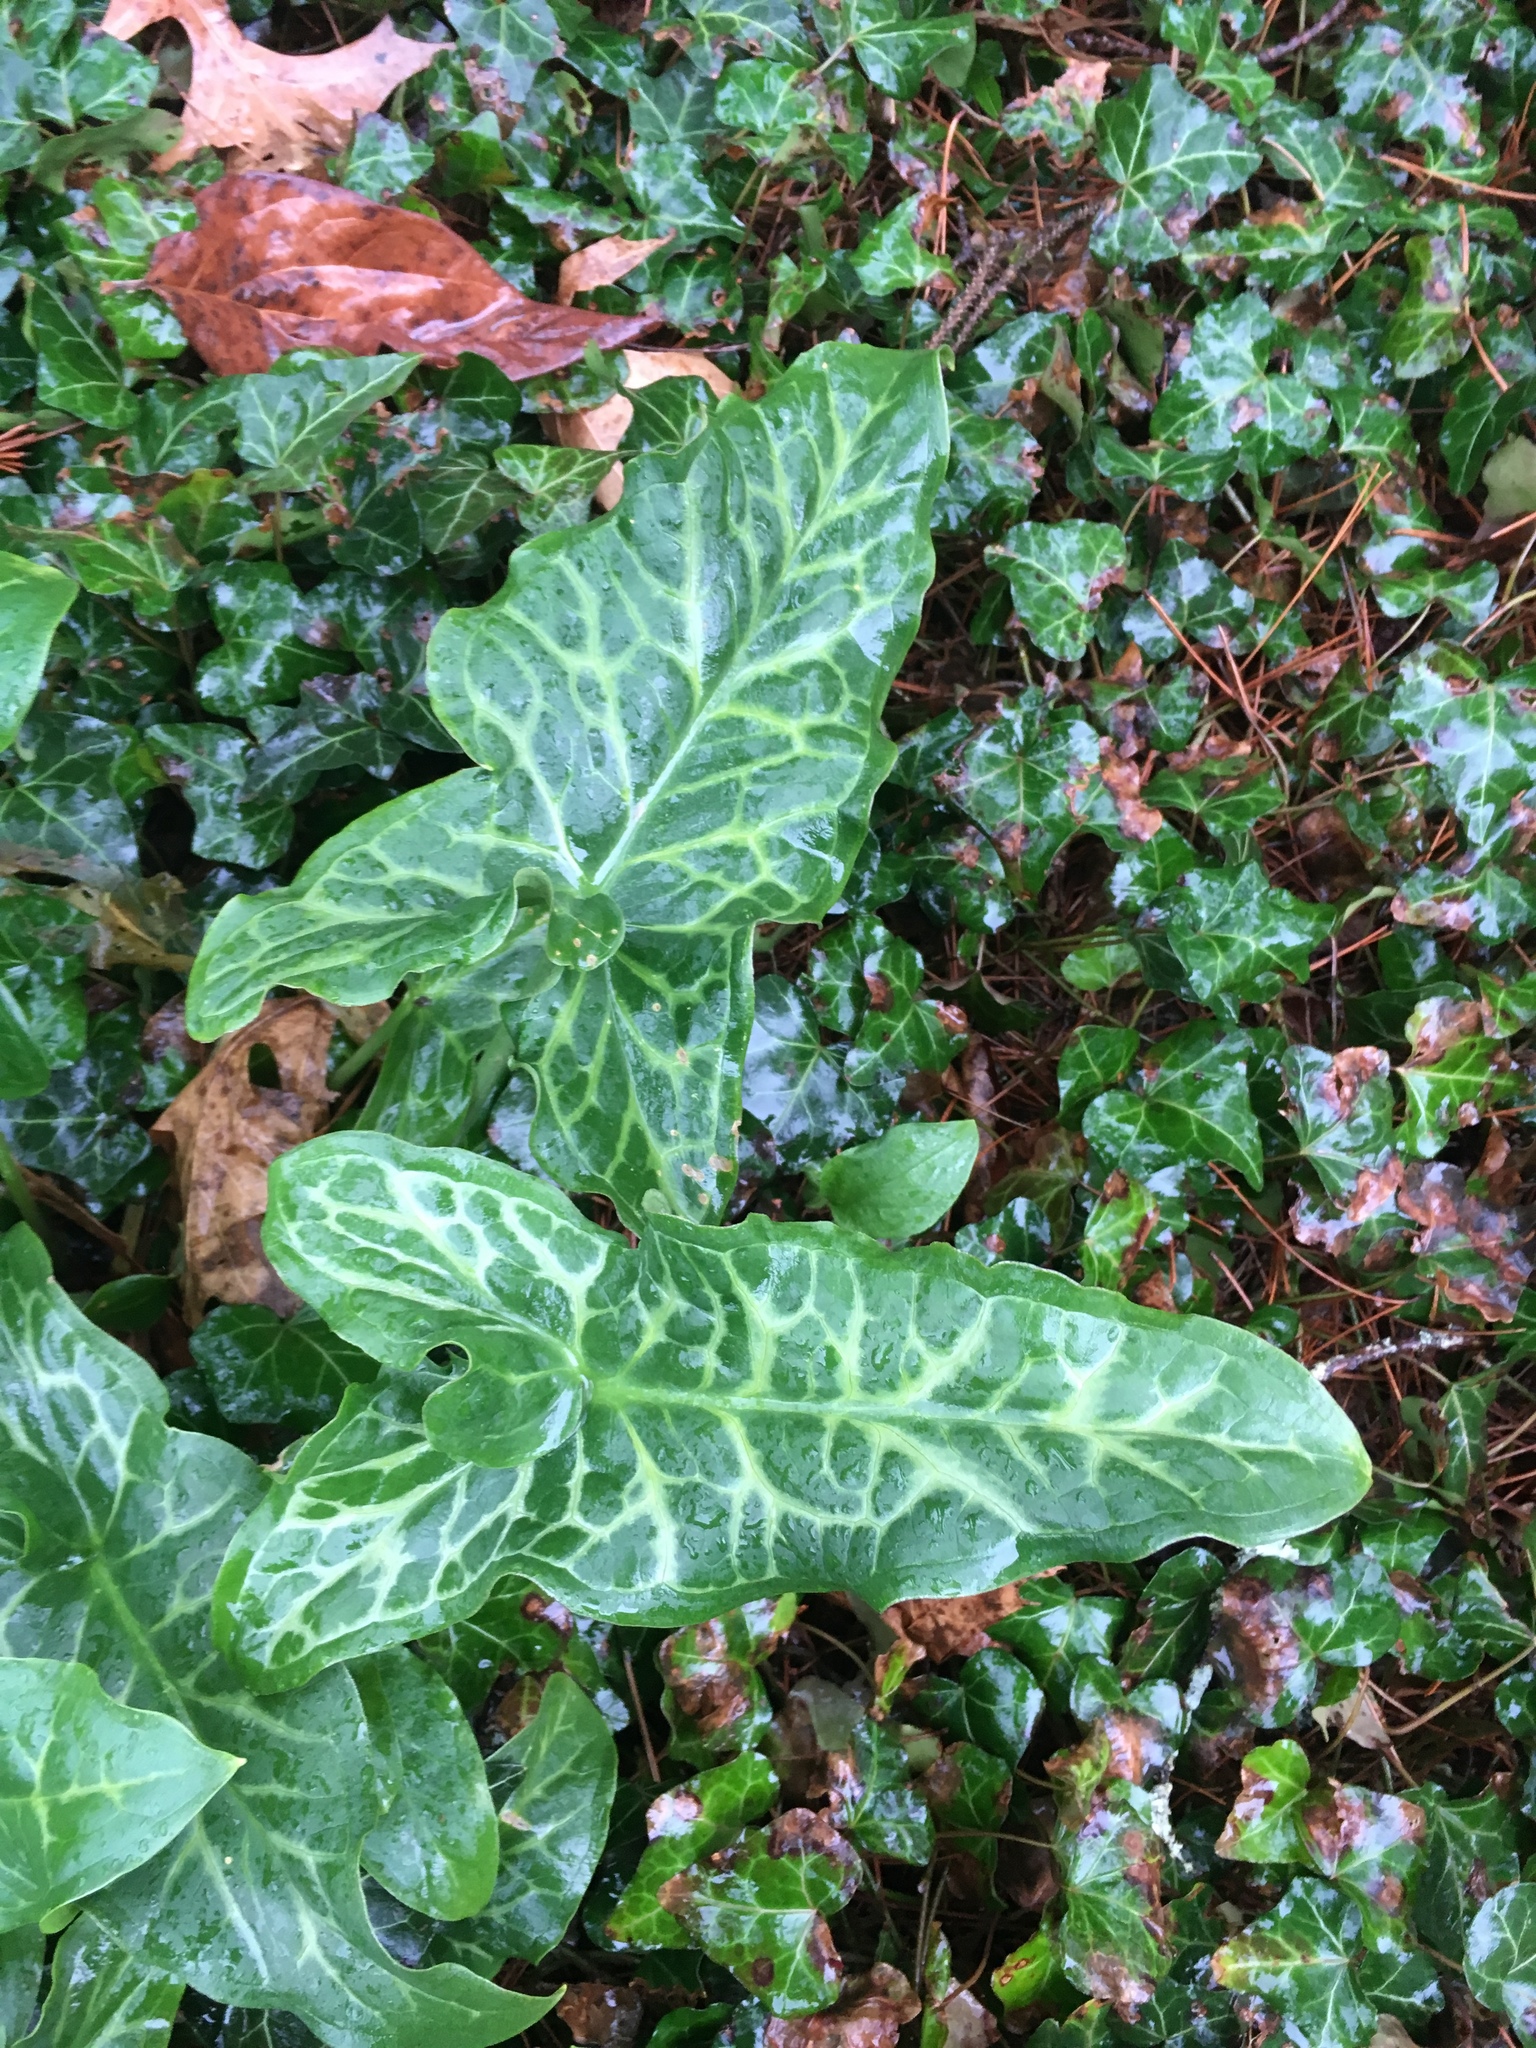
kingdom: Plantae
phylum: Tracheophyta
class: Liliopsida
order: Alismatales
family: Araceae
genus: Arum
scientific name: Arum italicum
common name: Italian lords-and-ladies
